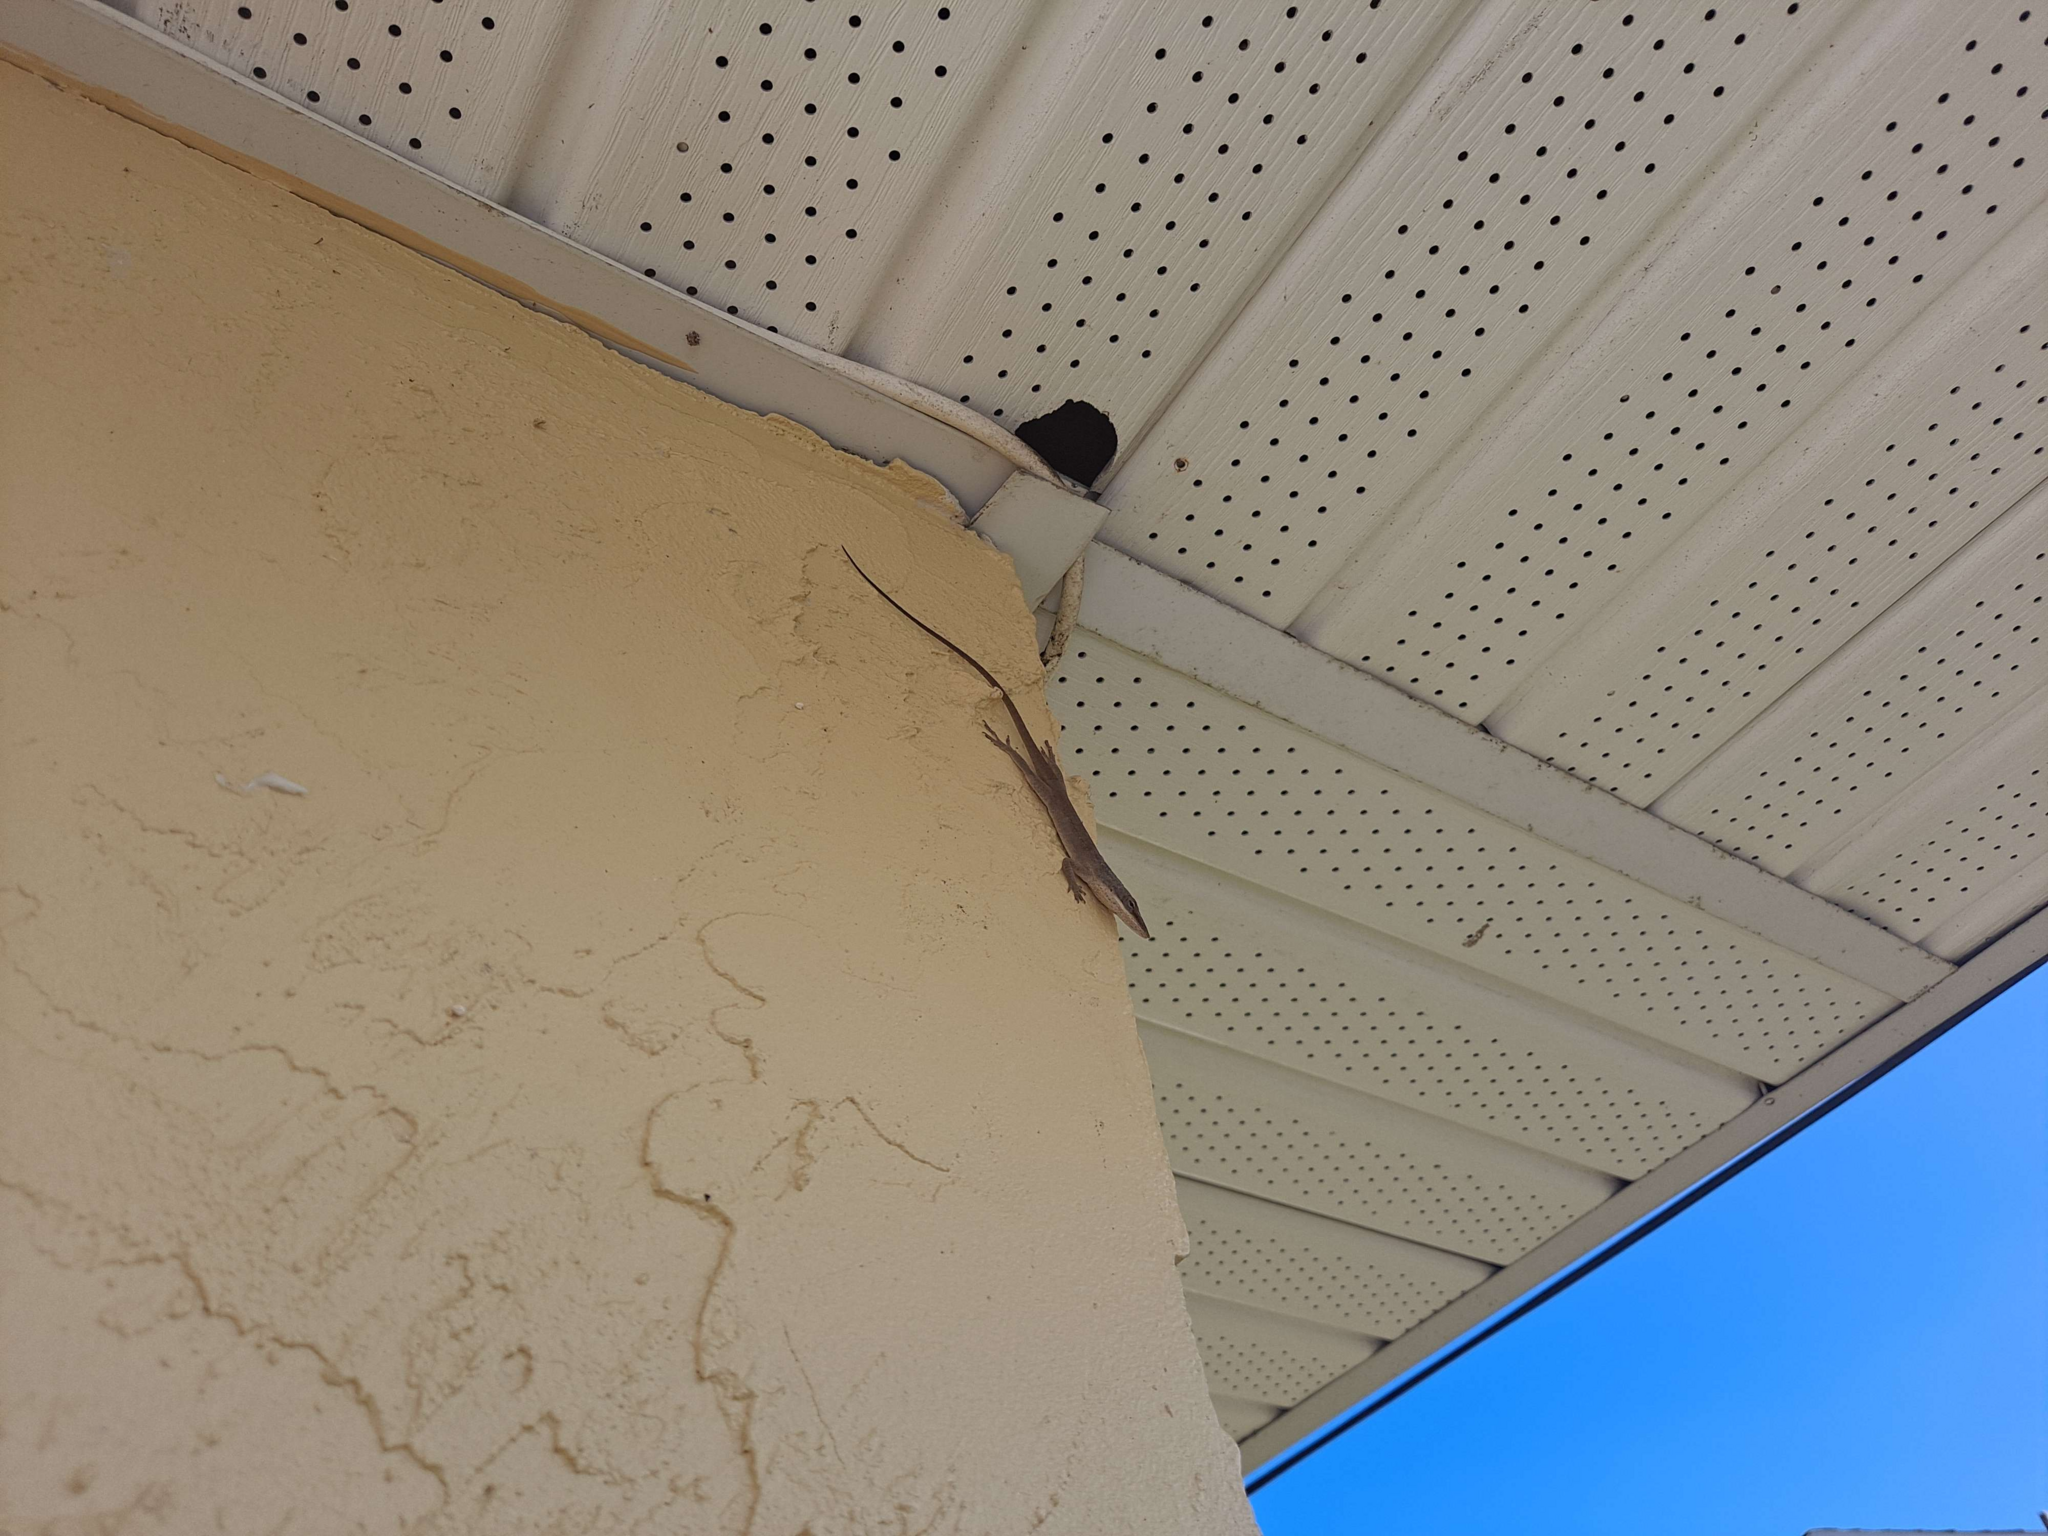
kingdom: Animalia
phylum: Chordata
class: Squamata
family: Dactyloidae
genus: Anolis
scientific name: Anolis carolinensis
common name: Green anole
